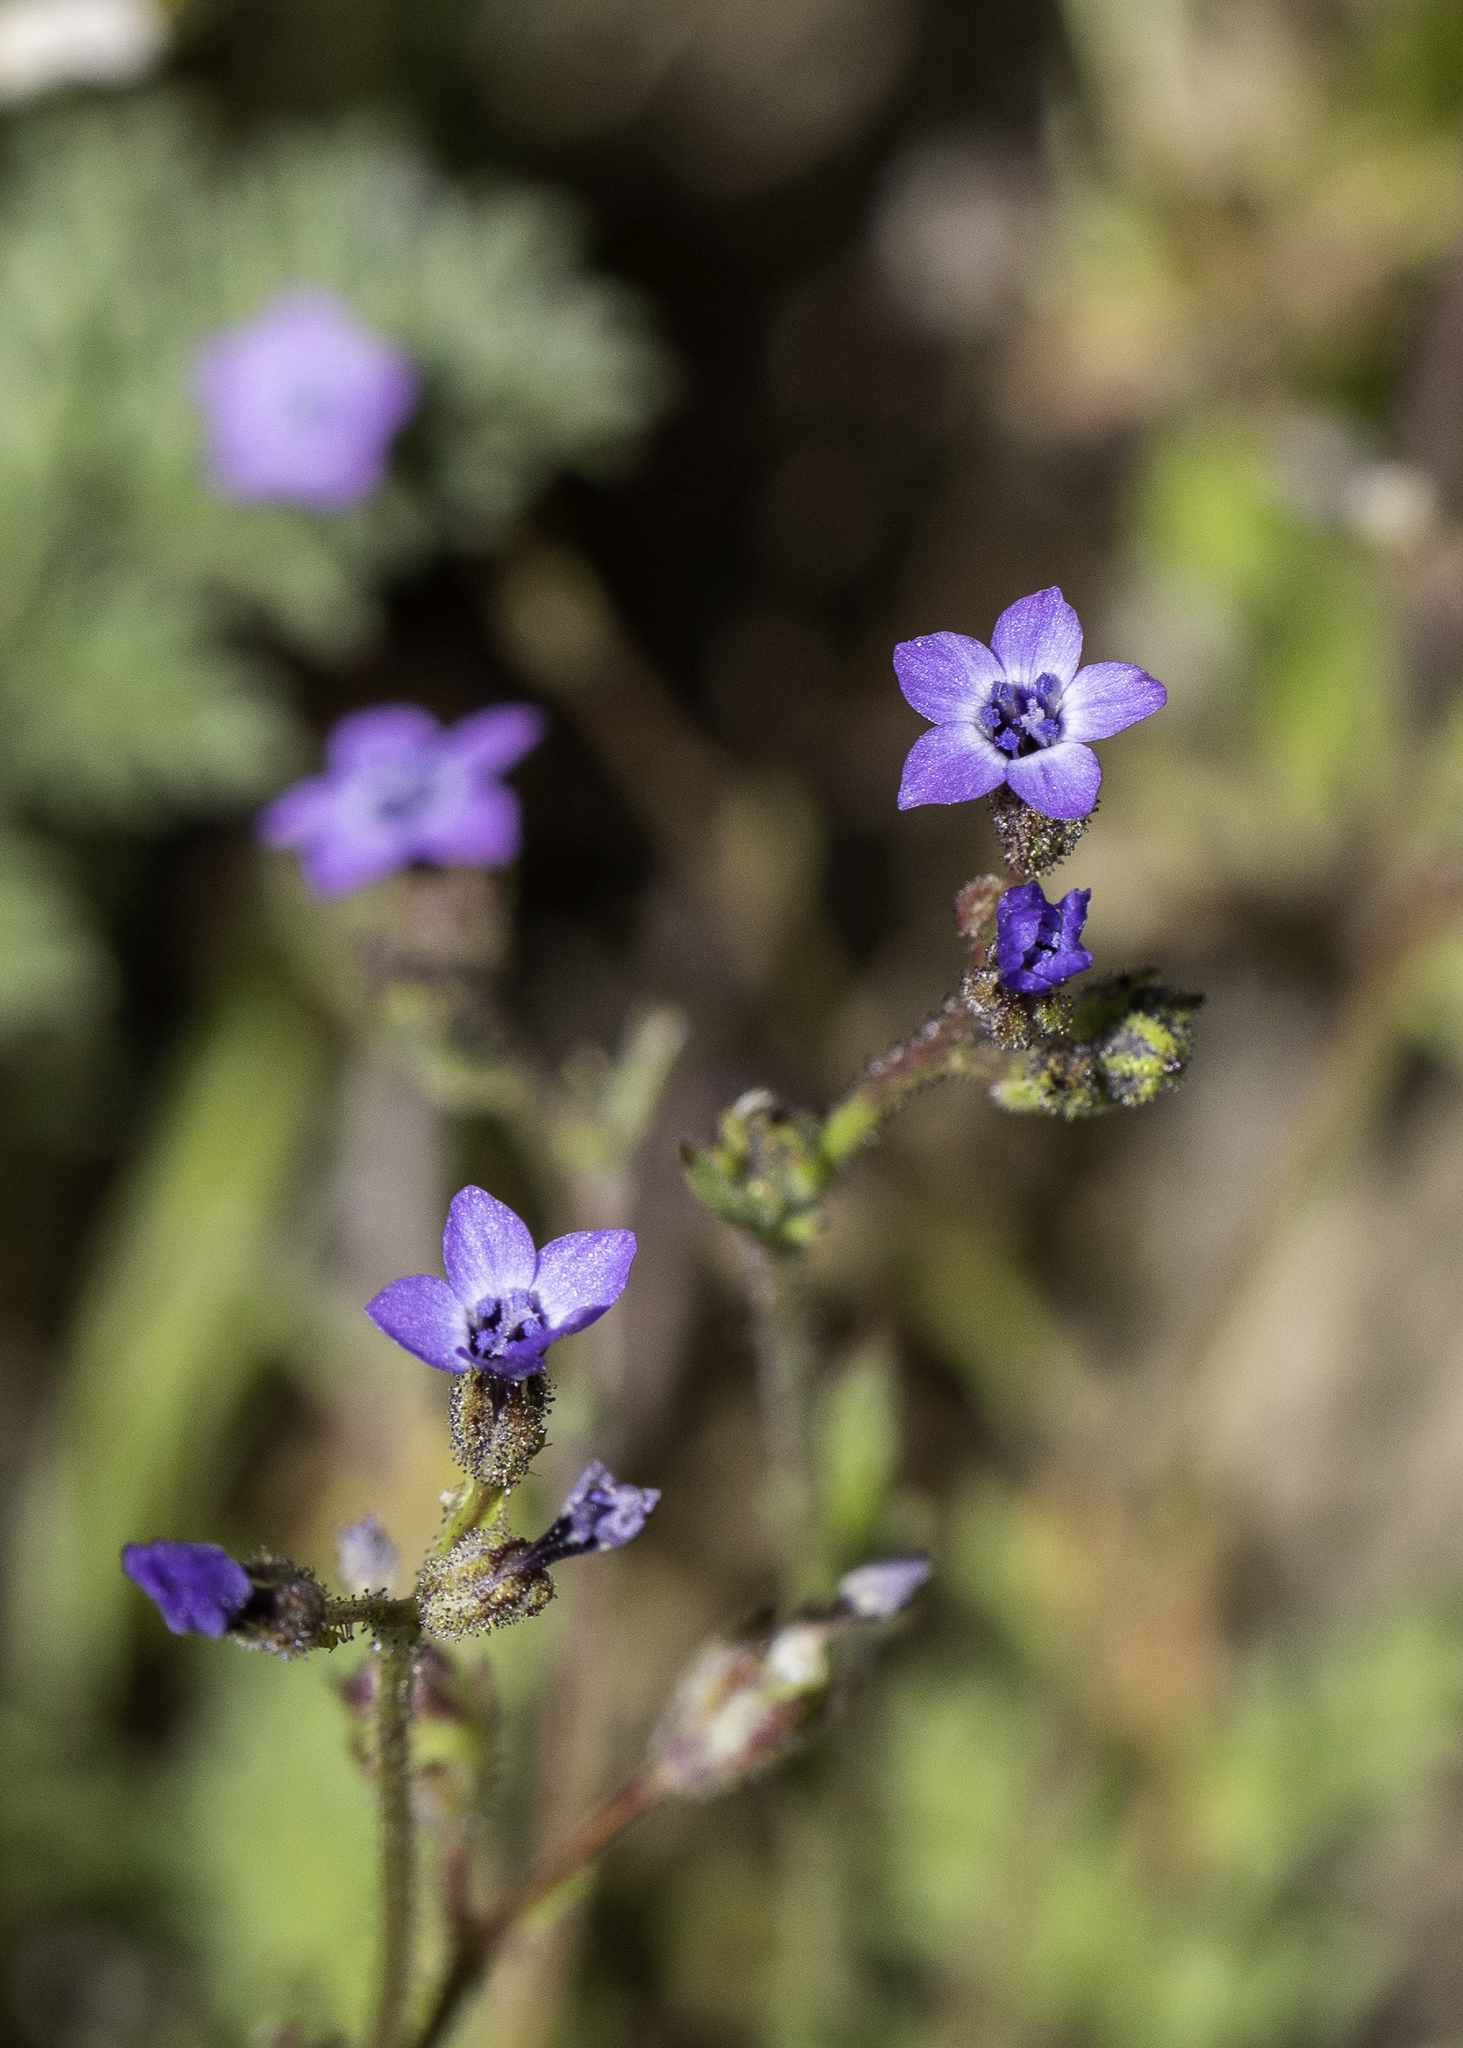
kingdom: Plantae
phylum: Tracheophyta
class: Magnoliopsida
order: Ericales
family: Polemoniaceae
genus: Gilia
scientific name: Gilia minor
